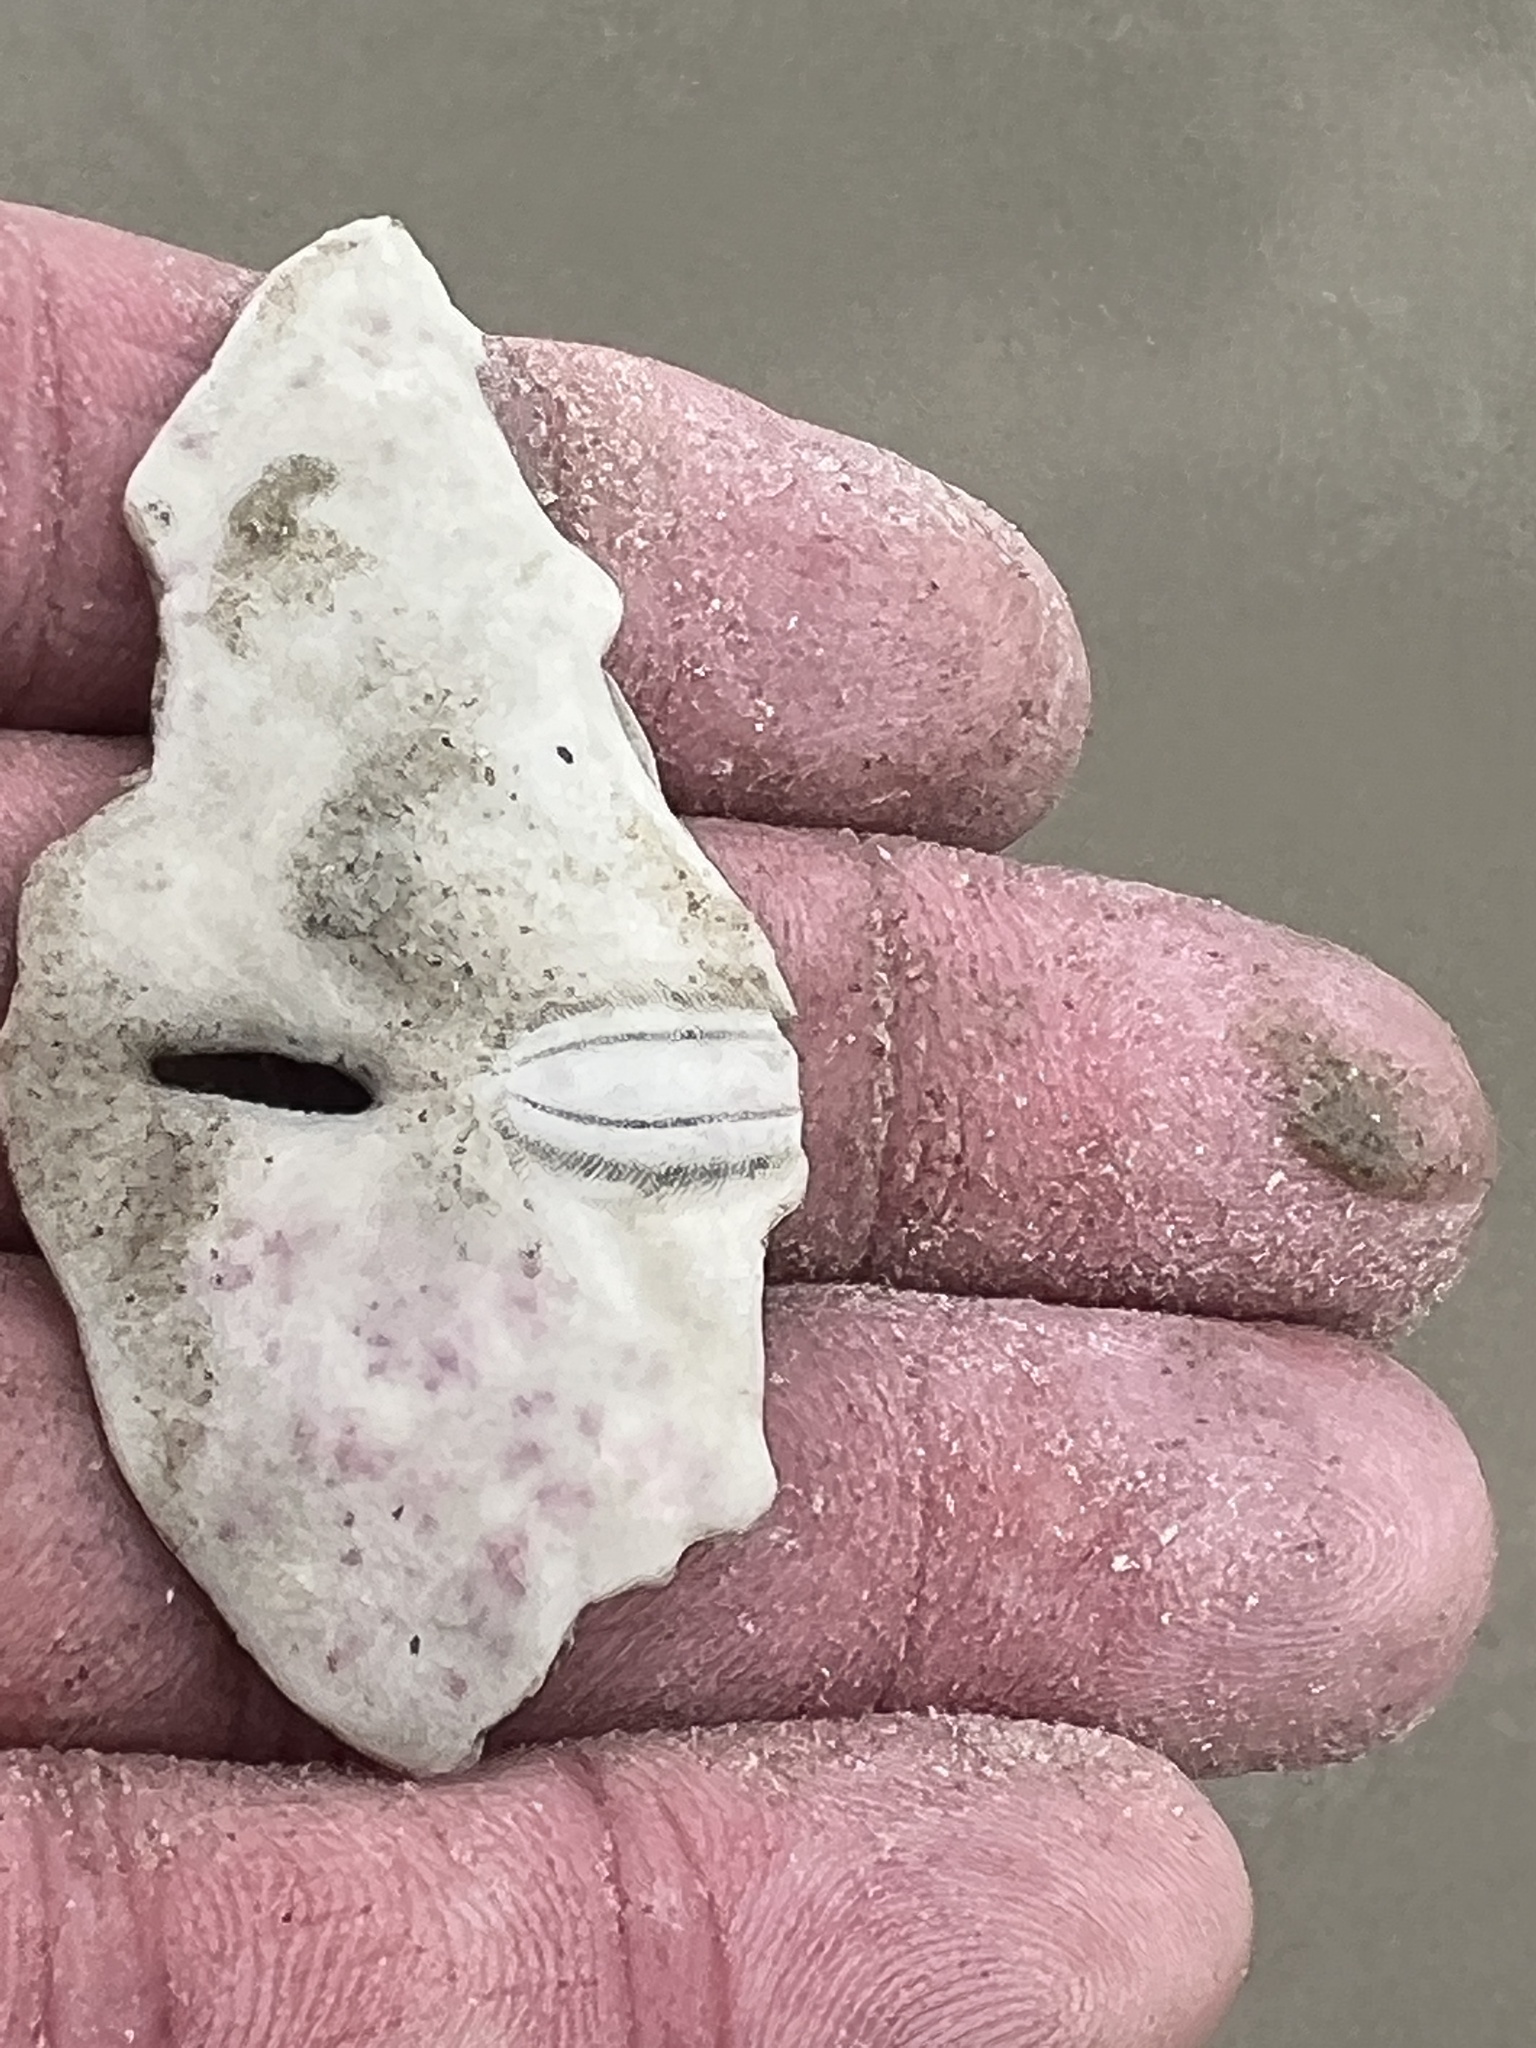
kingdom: Animalia
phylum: Echinodermata
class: Echinoidea
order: Echinolampadacea
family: Mellitidae
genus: Mellita
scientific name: Mellita quinquiesperforata
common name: Sand dollar
